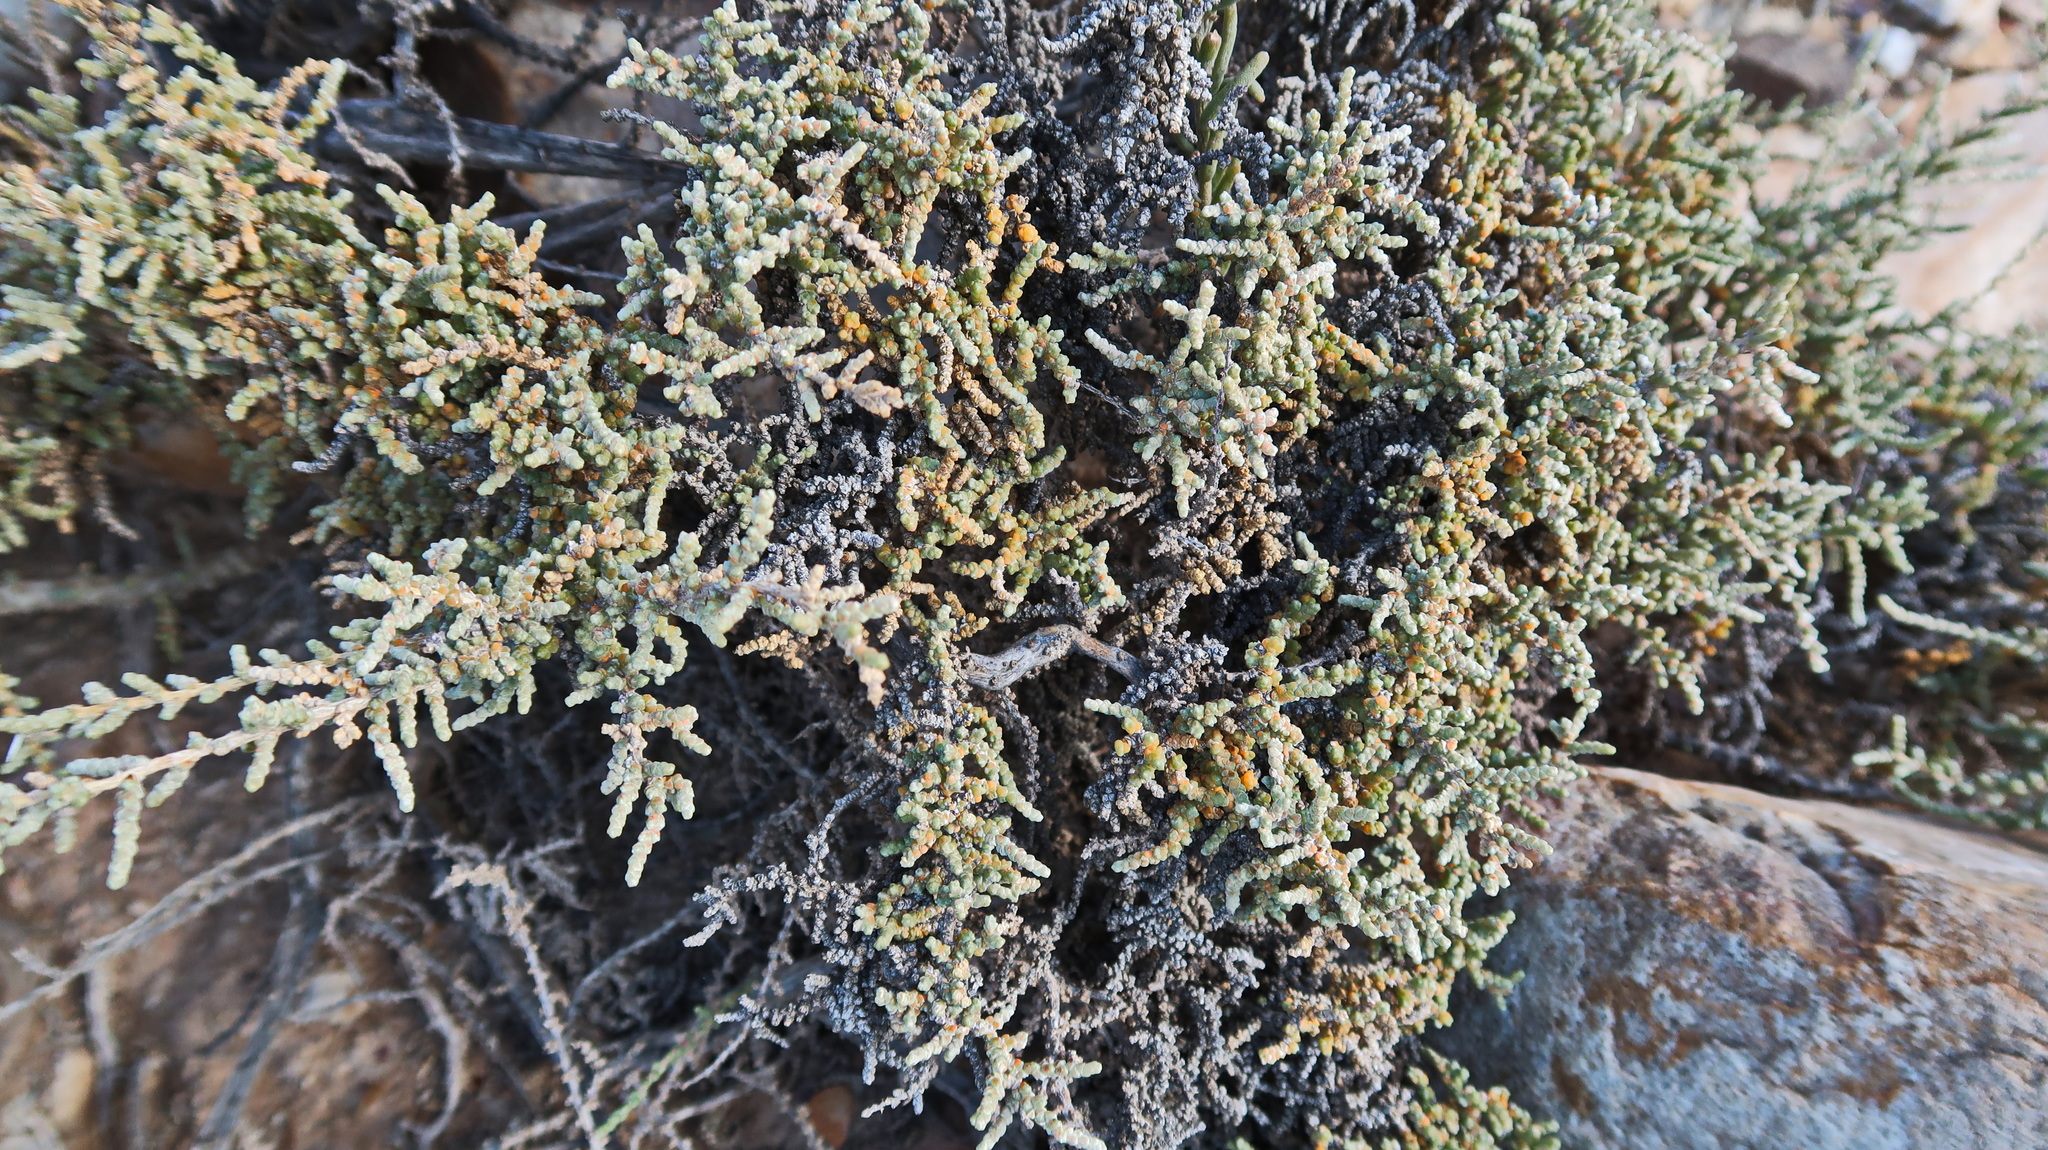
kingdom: Plantae
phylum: Tracheophyta
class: Magnoliopsida
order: Caryophyllales
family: Amaranthaceae
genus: Caroxylon
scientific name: Caroxylon aphyllum
